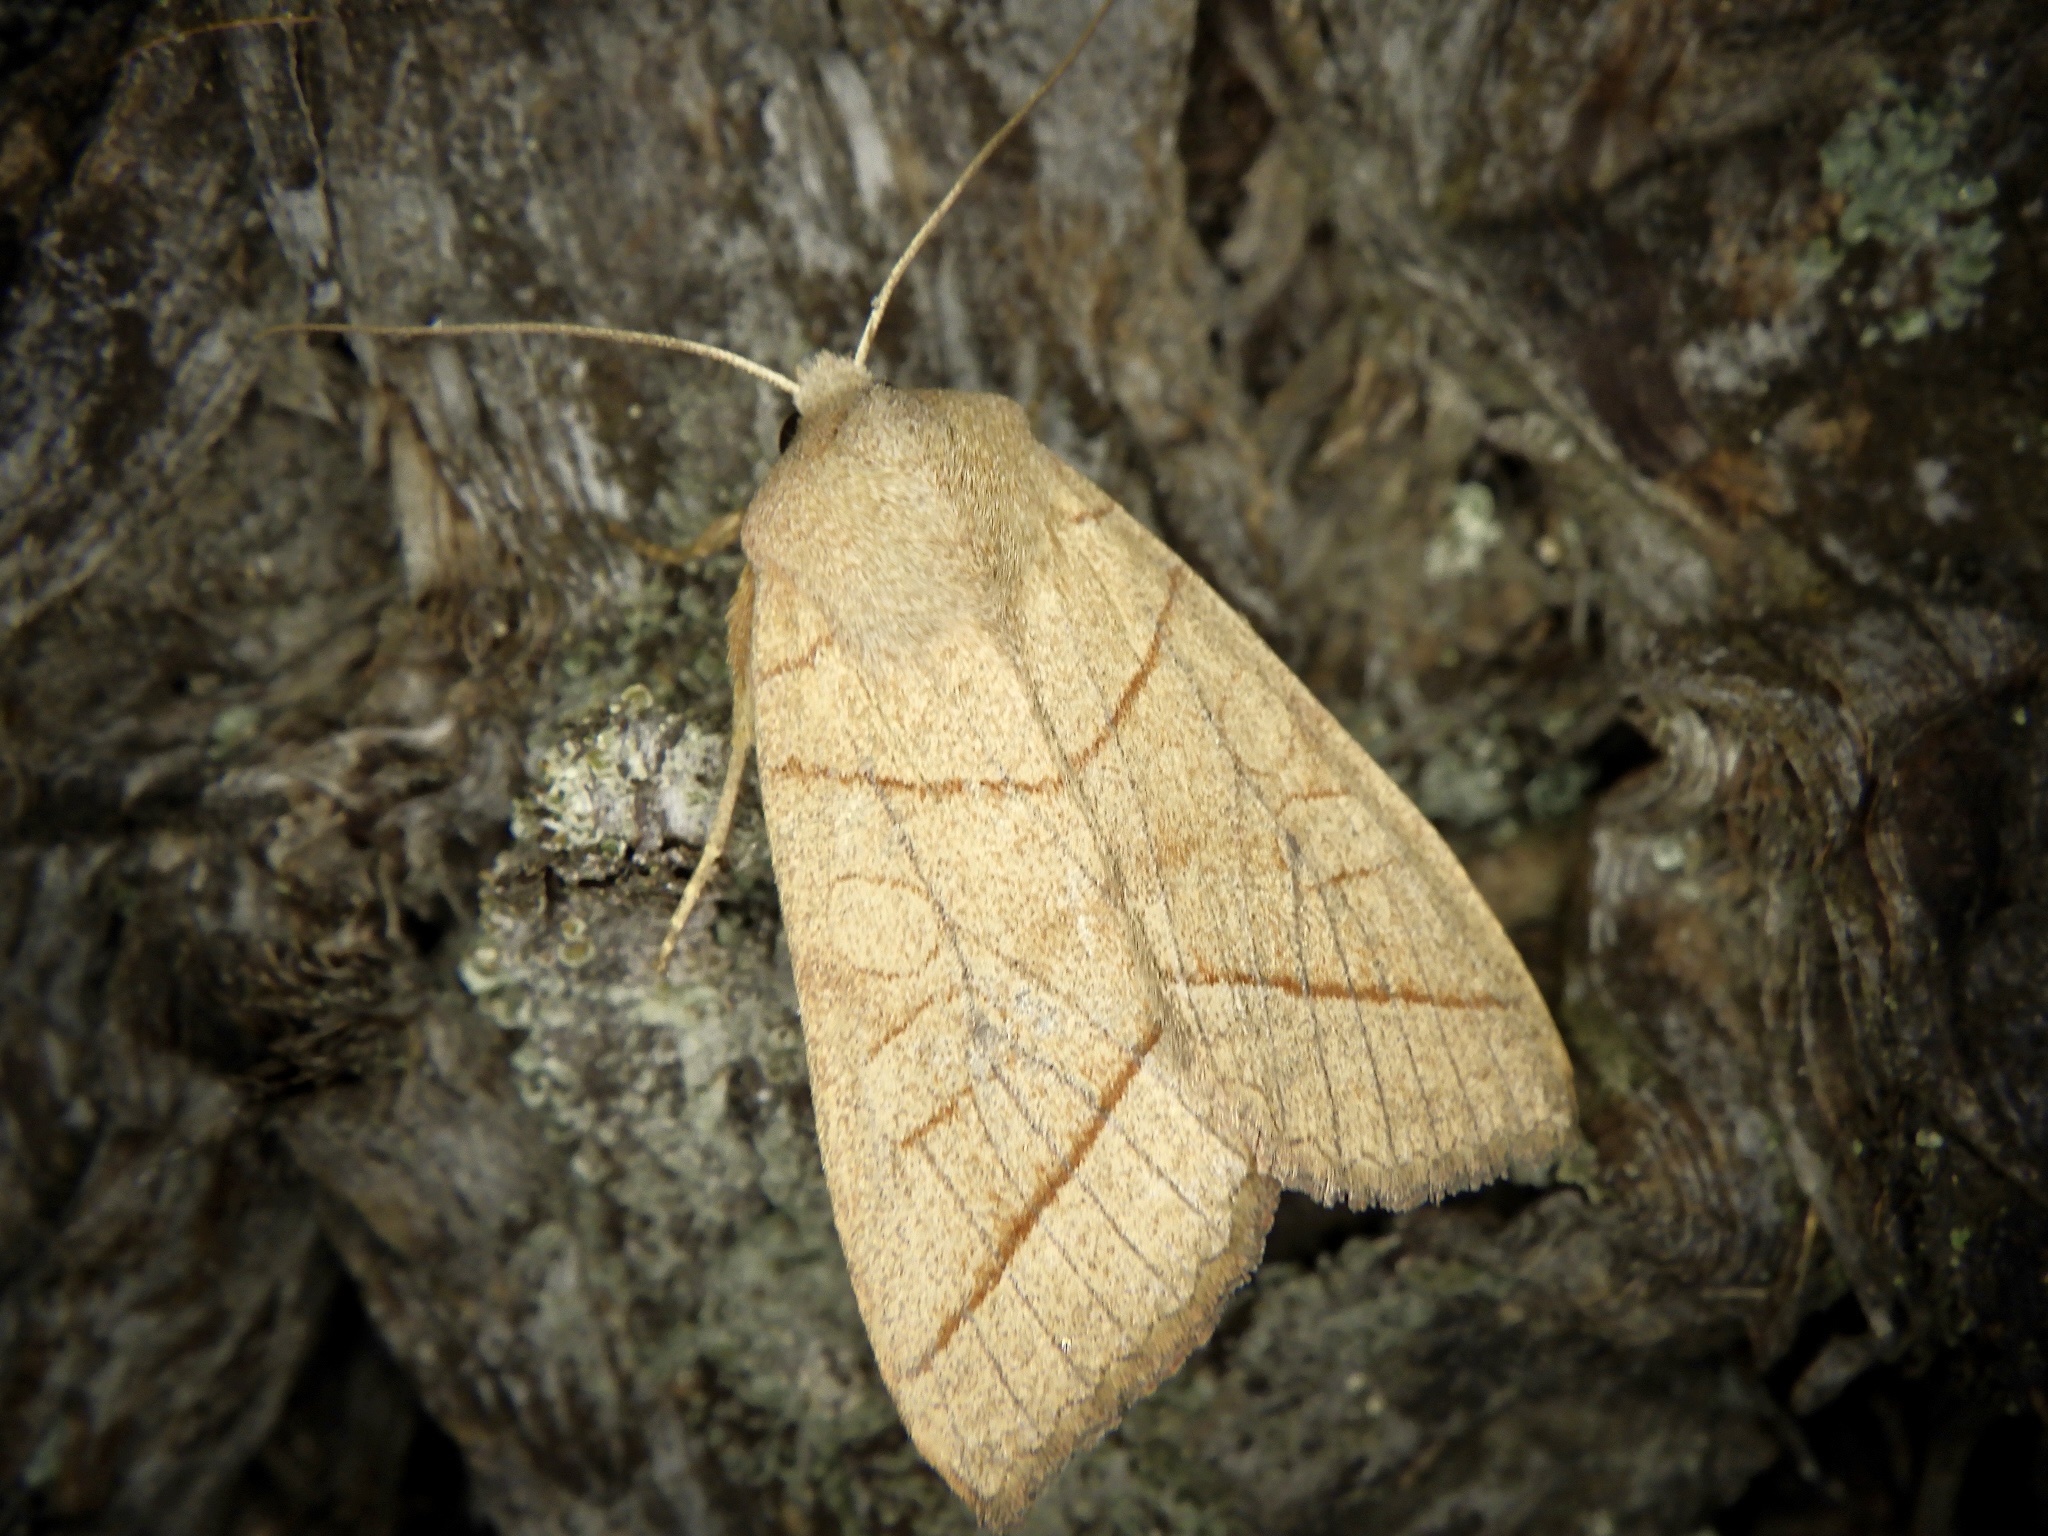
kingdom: Animalia
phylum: Arthropoda
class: Insecta
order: Lepidoptera
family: Noctuidae
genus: Telorta
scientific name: Telorta divergens
